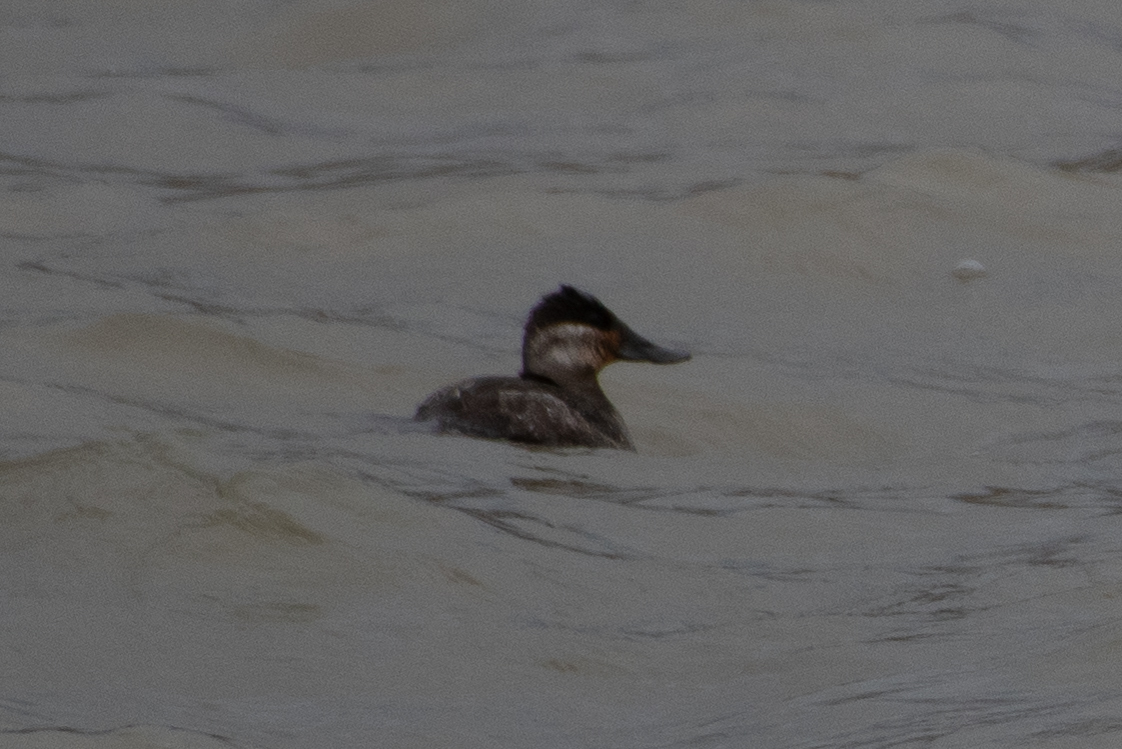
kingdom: Animalia
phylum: Chordata
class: Aves
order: Anseriformes
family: Anatidae
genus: Oxyura
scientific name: Oxyura jamaicensis
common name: Ruddy duck
